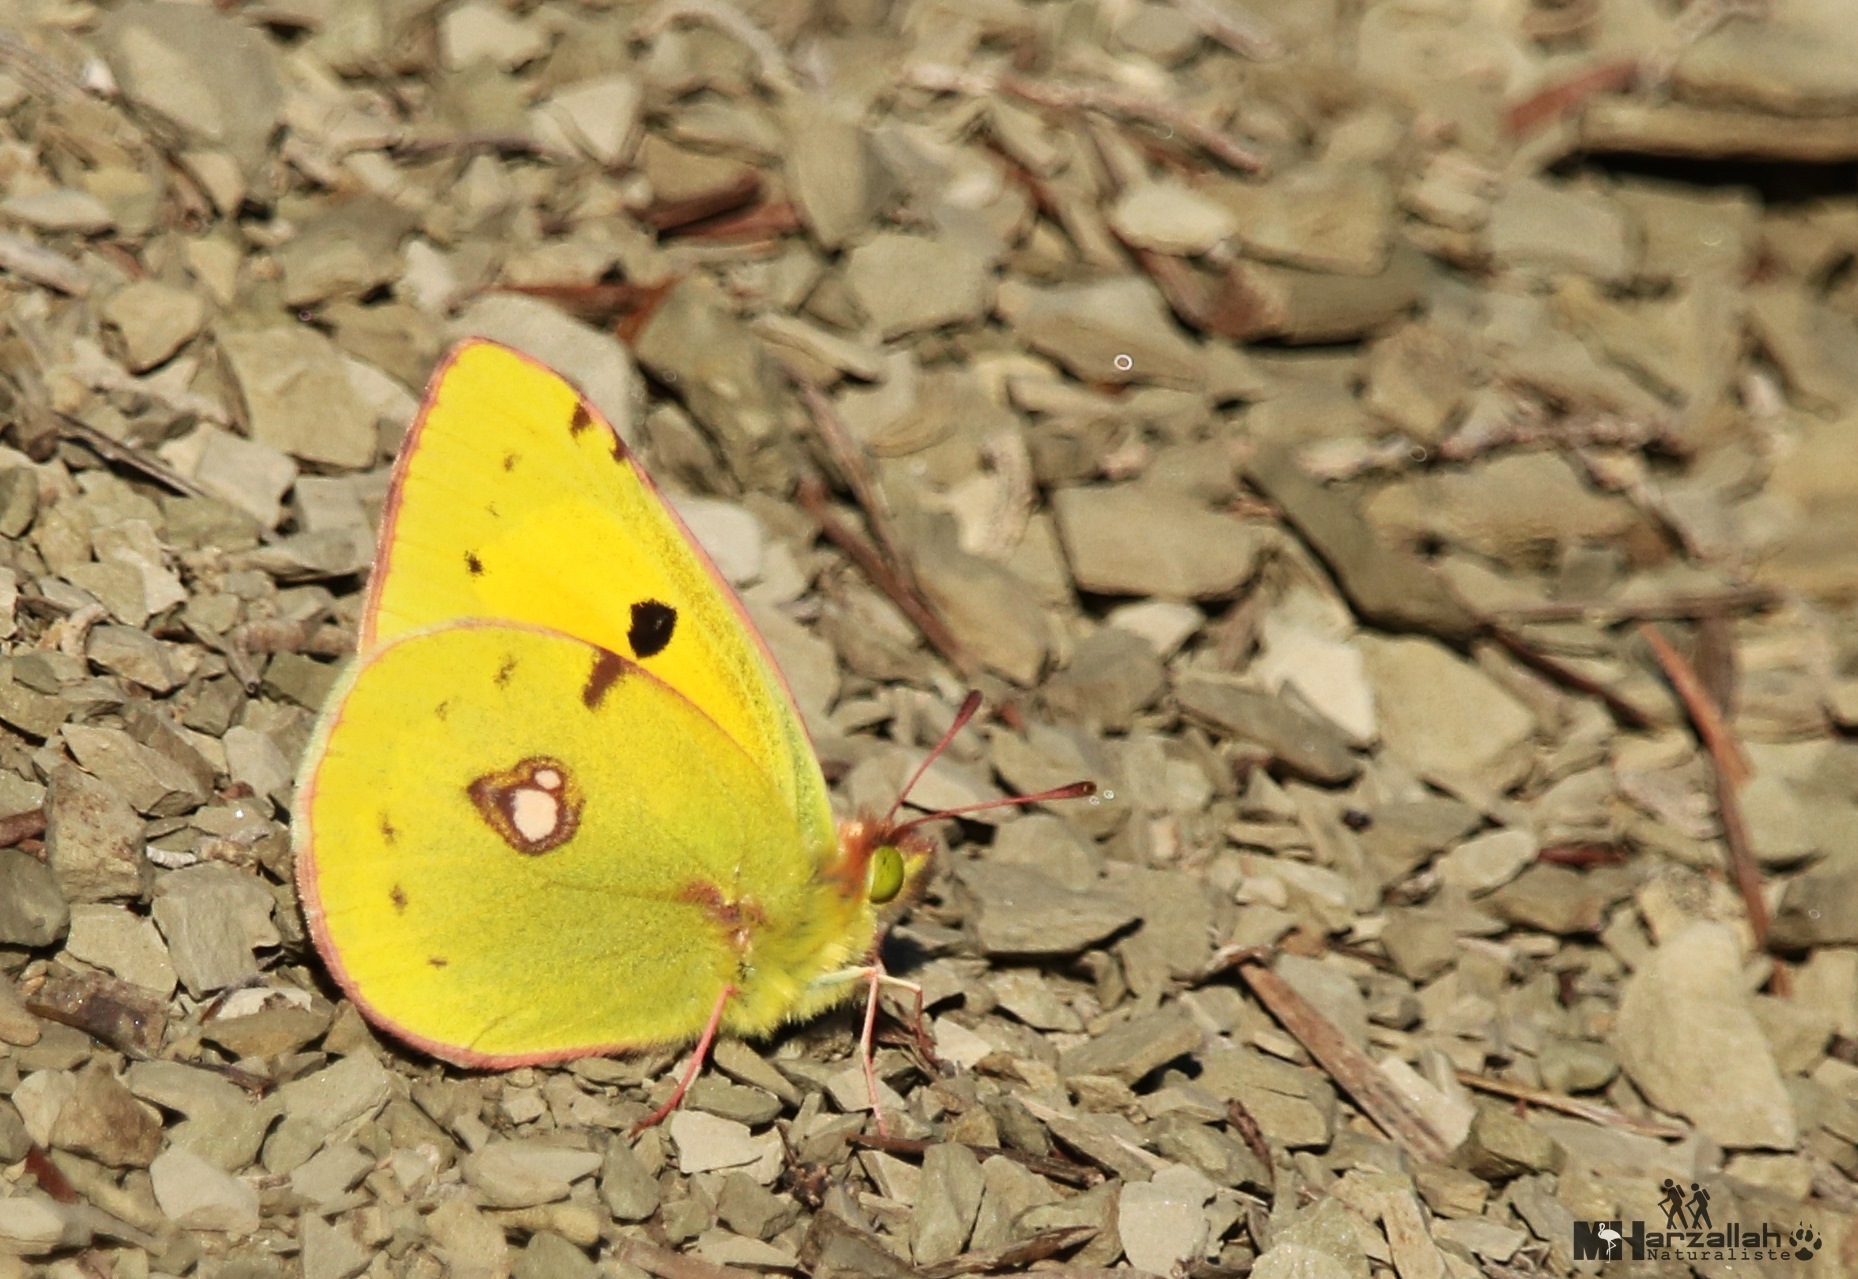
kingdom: Animalia
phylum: Arthropoda
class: Insecta
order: Lepidoptera
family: Pieridae
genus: Colias
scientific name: Colias croceus
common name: Clouded yellow
